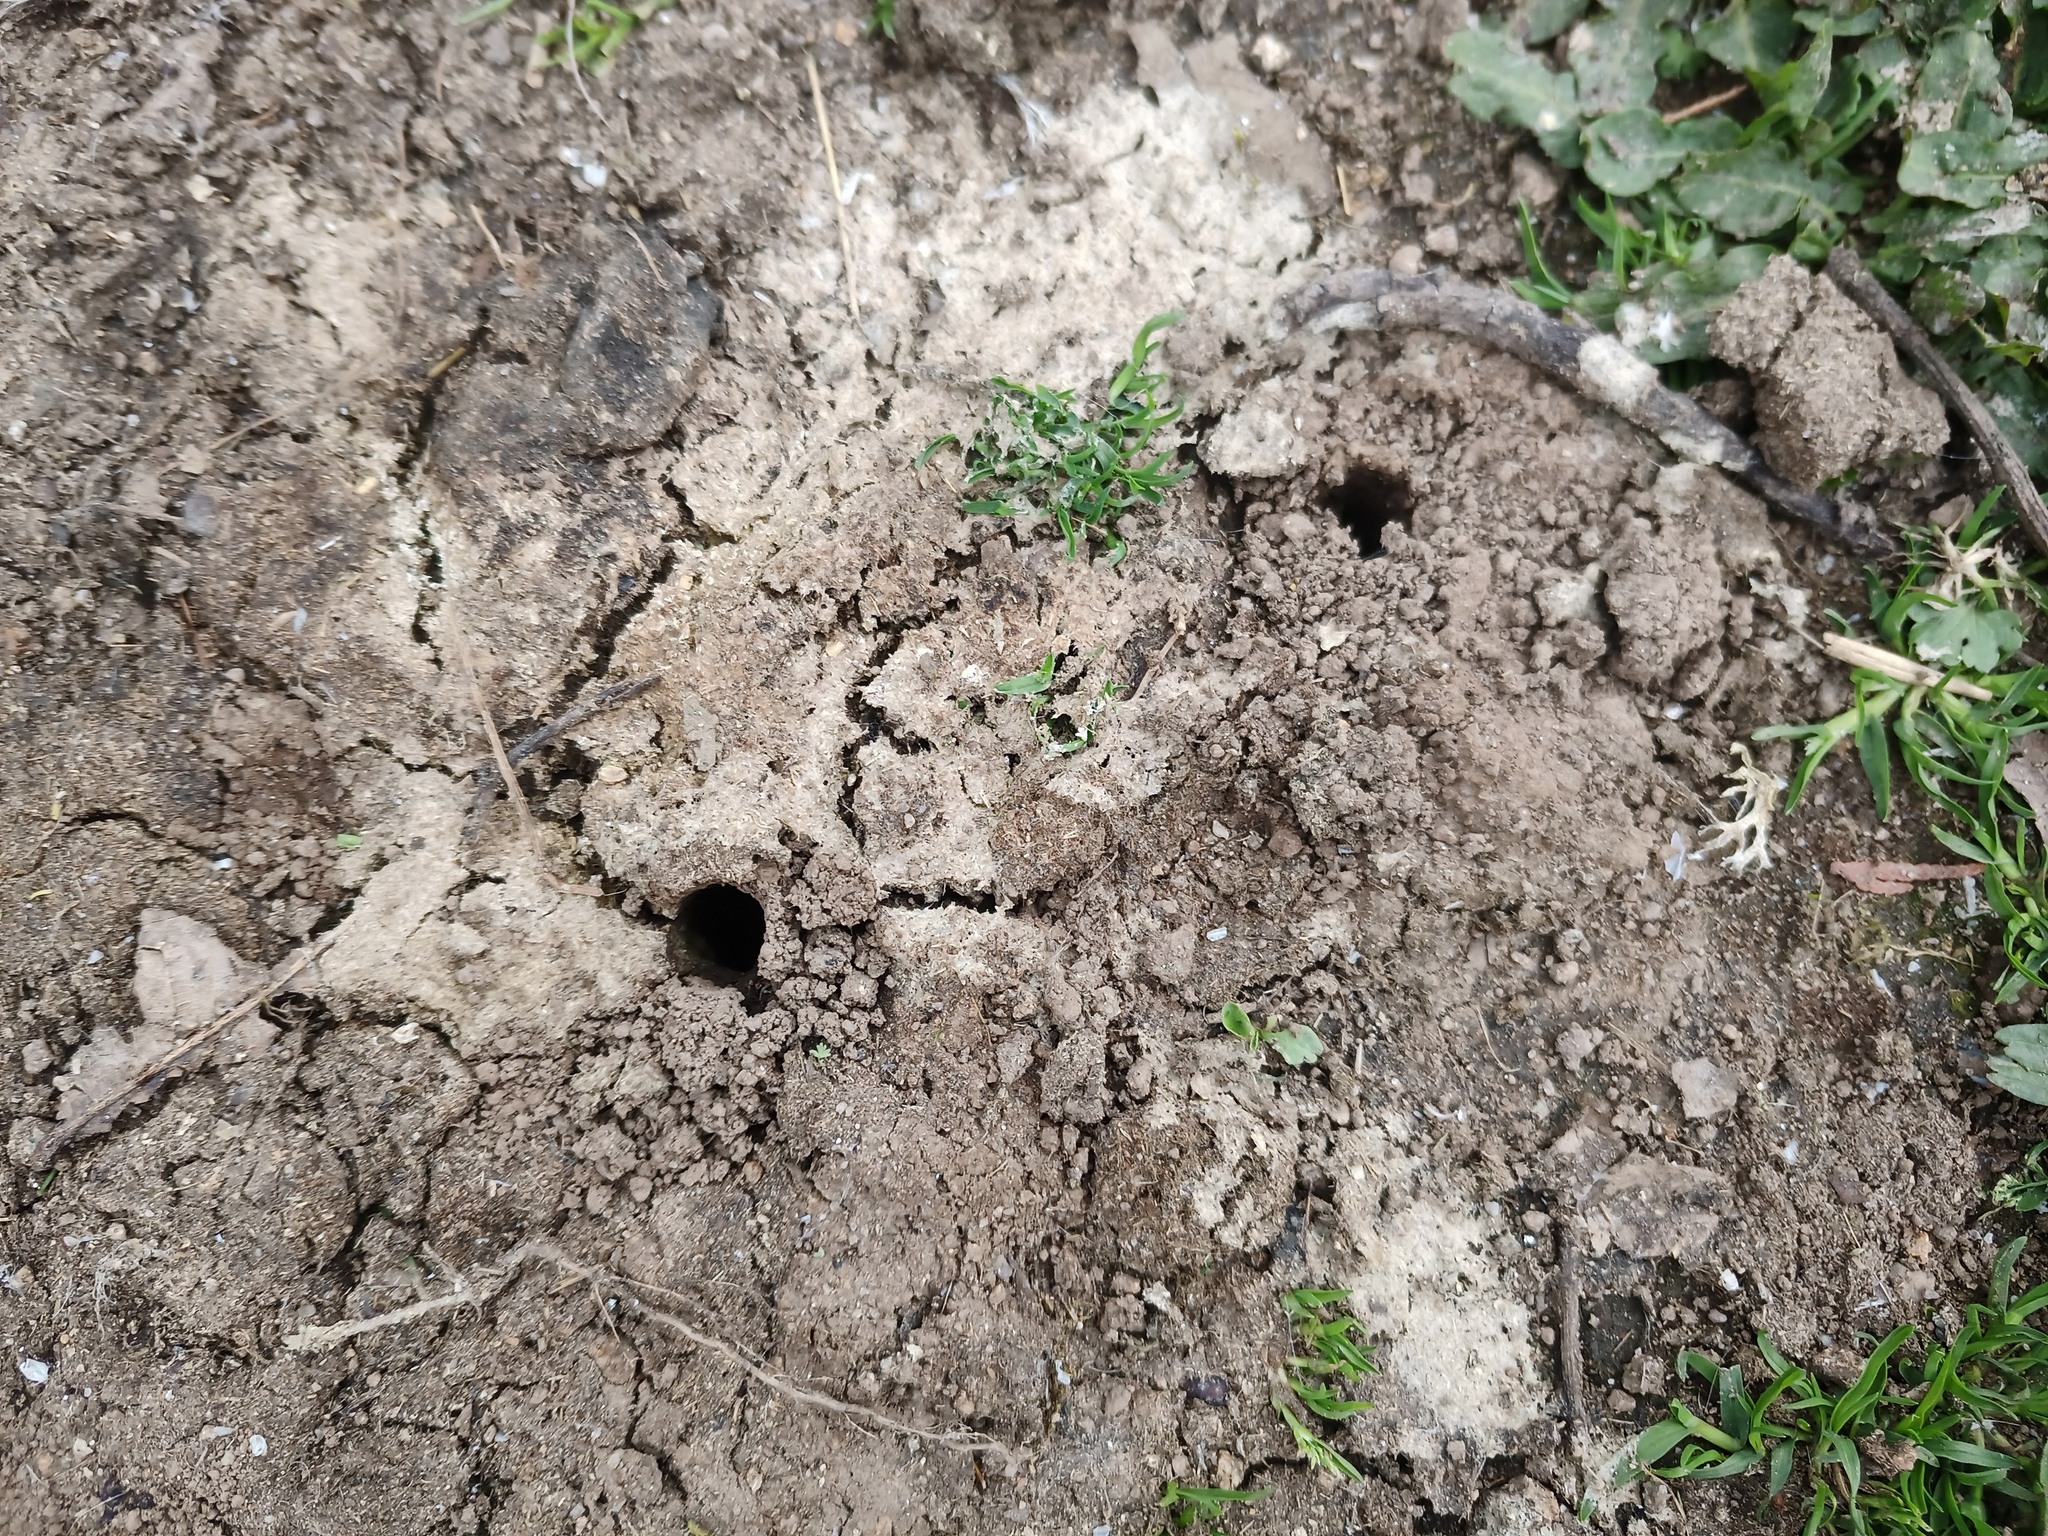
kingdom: Animalia
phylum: Arthropoda
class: Insecta
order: Coleoptera
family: Geotrupidae
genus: Typhaeus
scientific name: Typhaeus typhoeus
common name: Minotaur beetle
